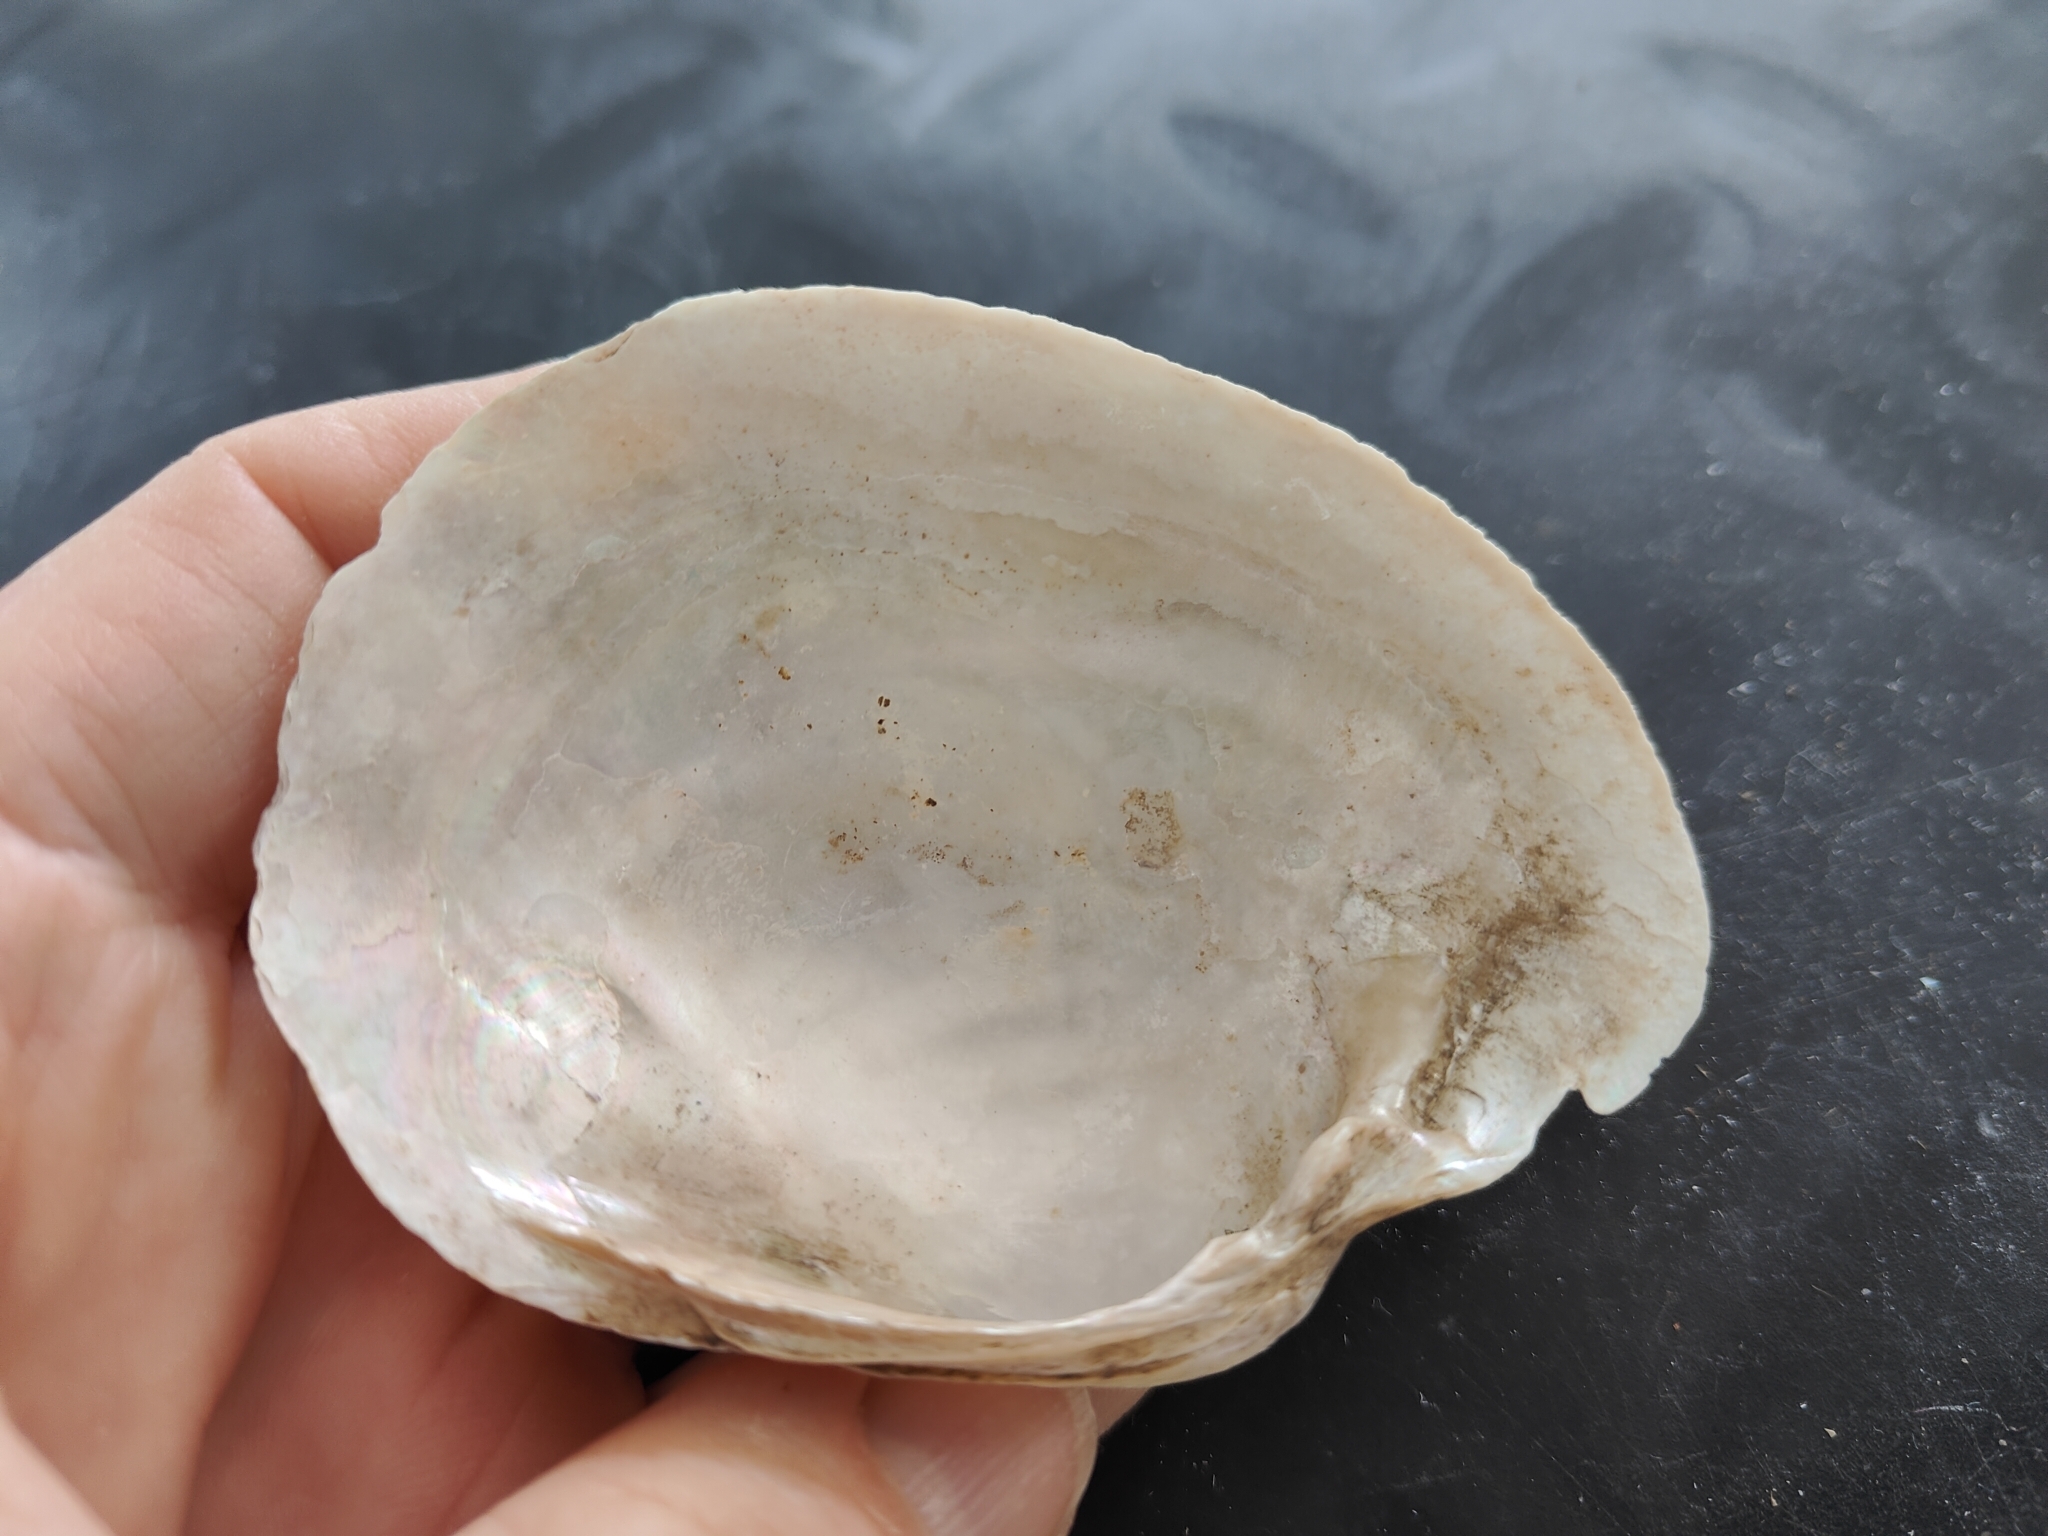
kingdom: Animalia
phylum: Mollusca
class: Bivalvia
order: Unionida
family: Unionidae
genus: Lampsilis
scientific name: Lampsilis cardium
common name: Plain pocketbook
